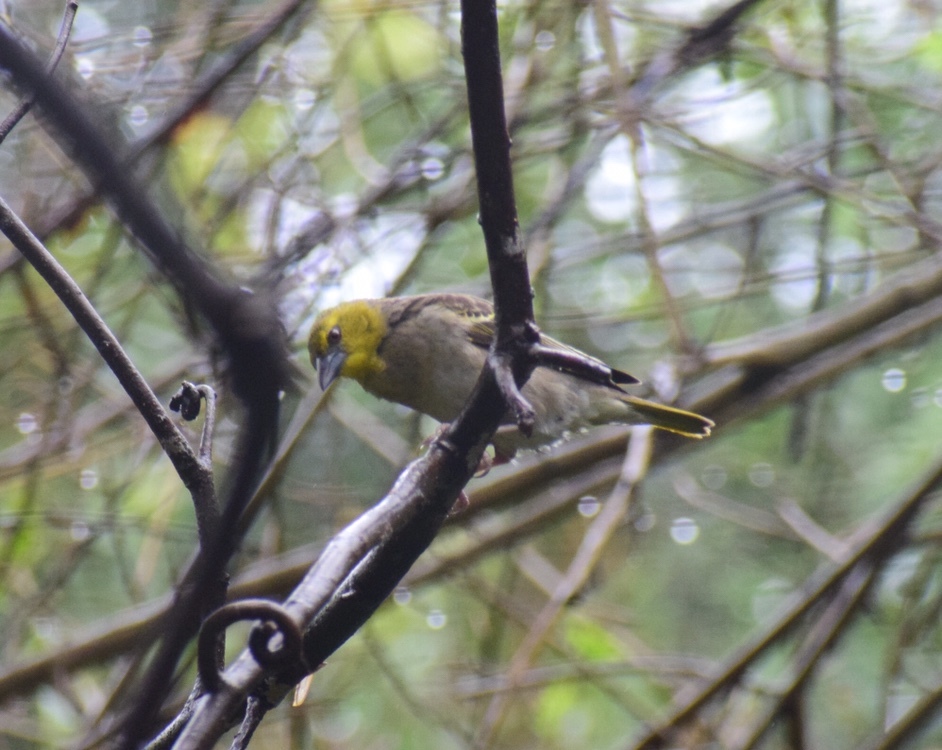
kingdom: Animalia
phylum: Chordata
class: Aves
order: Passeriformes
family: Ploceidae
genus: Ploceus
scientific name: Ploceus cucullatus
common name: Village weaver
